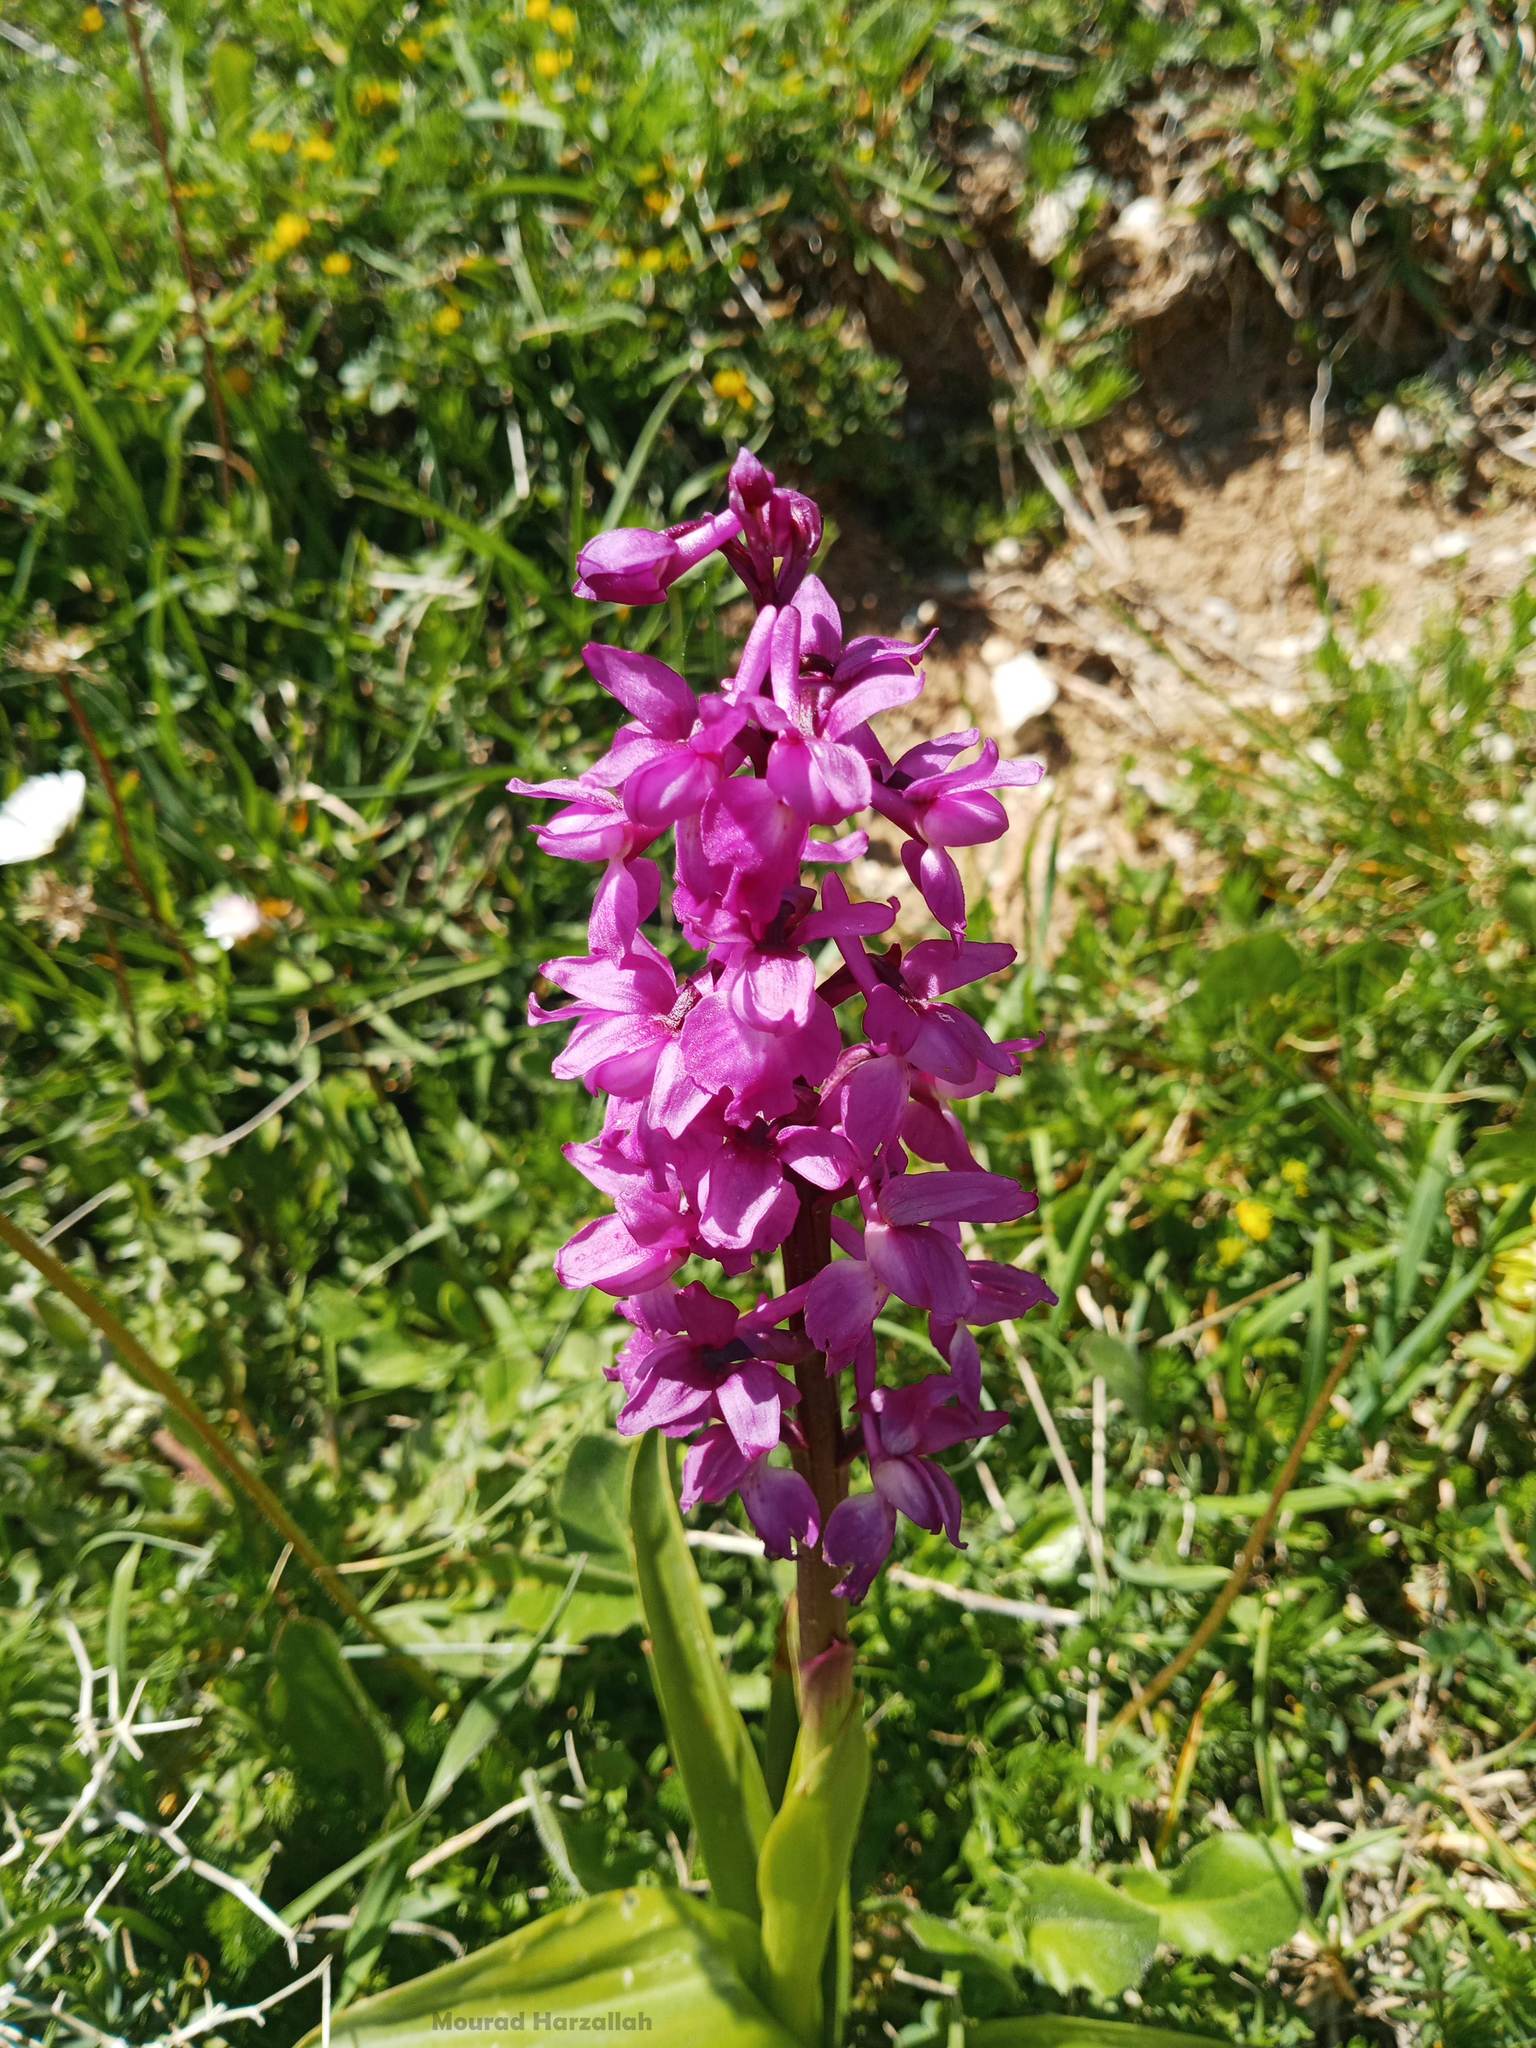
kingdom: Plantae
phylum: Tracheophyta
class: Liliopsida
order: Asparagales
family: Orchidaceae
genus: Orchis
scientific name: Orchis mascula
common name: Early-purple orchid
